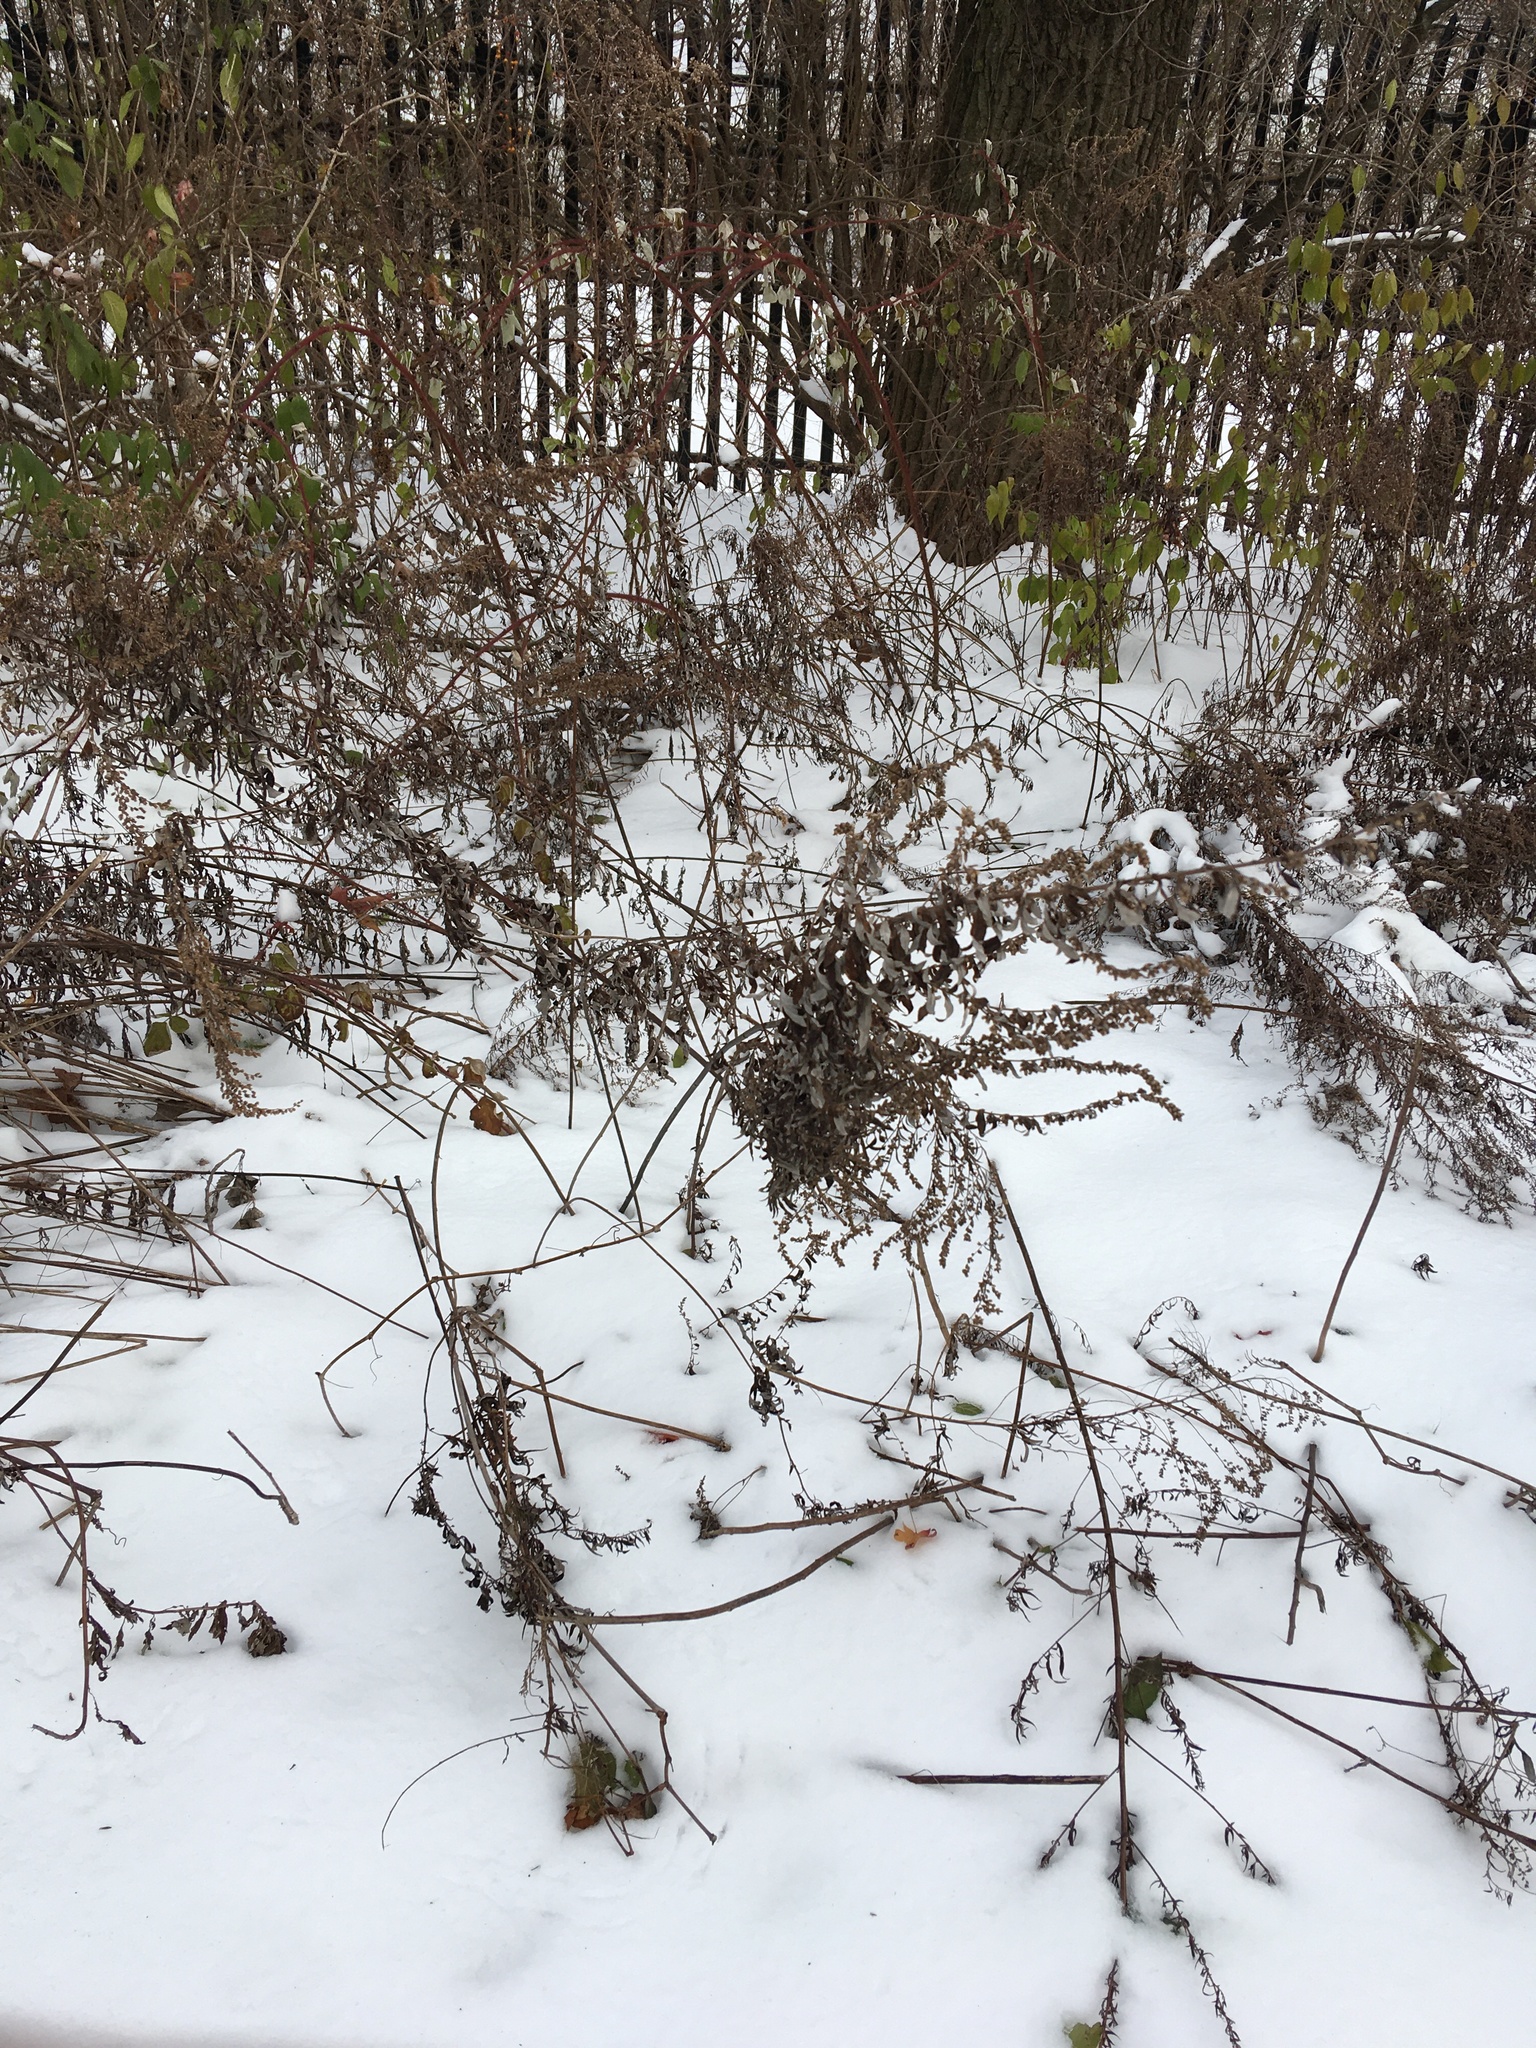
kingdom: Plantae
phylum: Tracheophyta
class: Magnoliopsida
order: Asterales
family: Asteraceae
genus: Artemisia
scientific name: Artemisia vulgaris
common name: Mugwort
